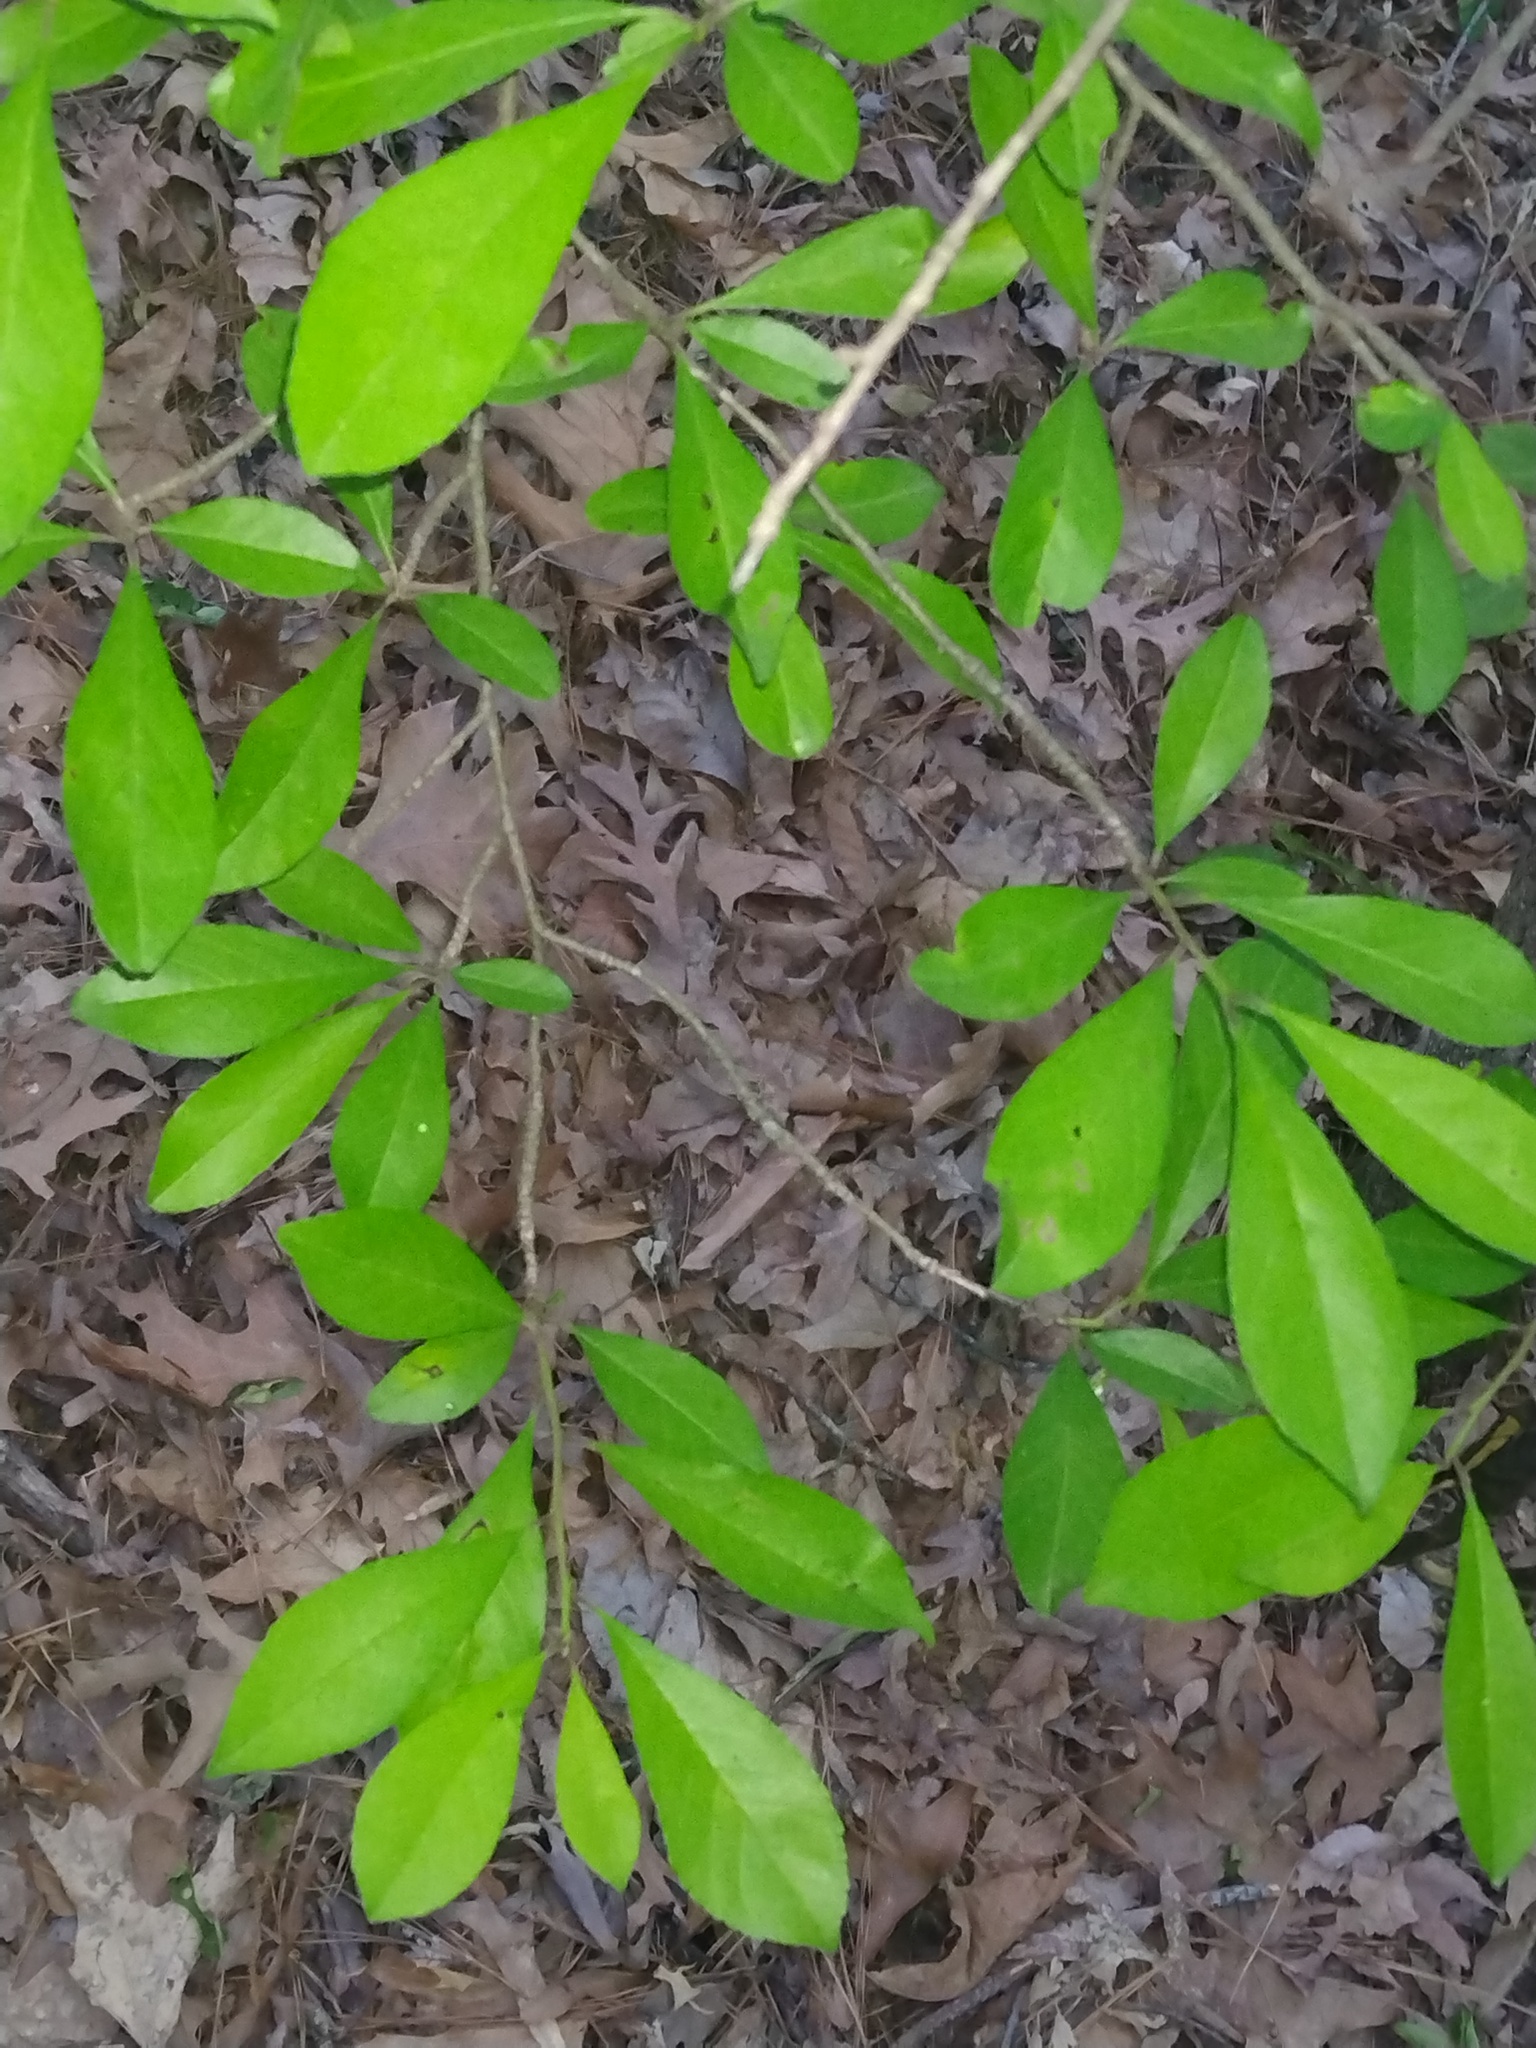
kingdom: Plantae
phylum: Tracheophyta
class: Magnoliopsida
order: Aquifoliales
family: Aquifoliaceae
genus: Ilex
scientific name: Ilex decidua
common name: Possum-haw
